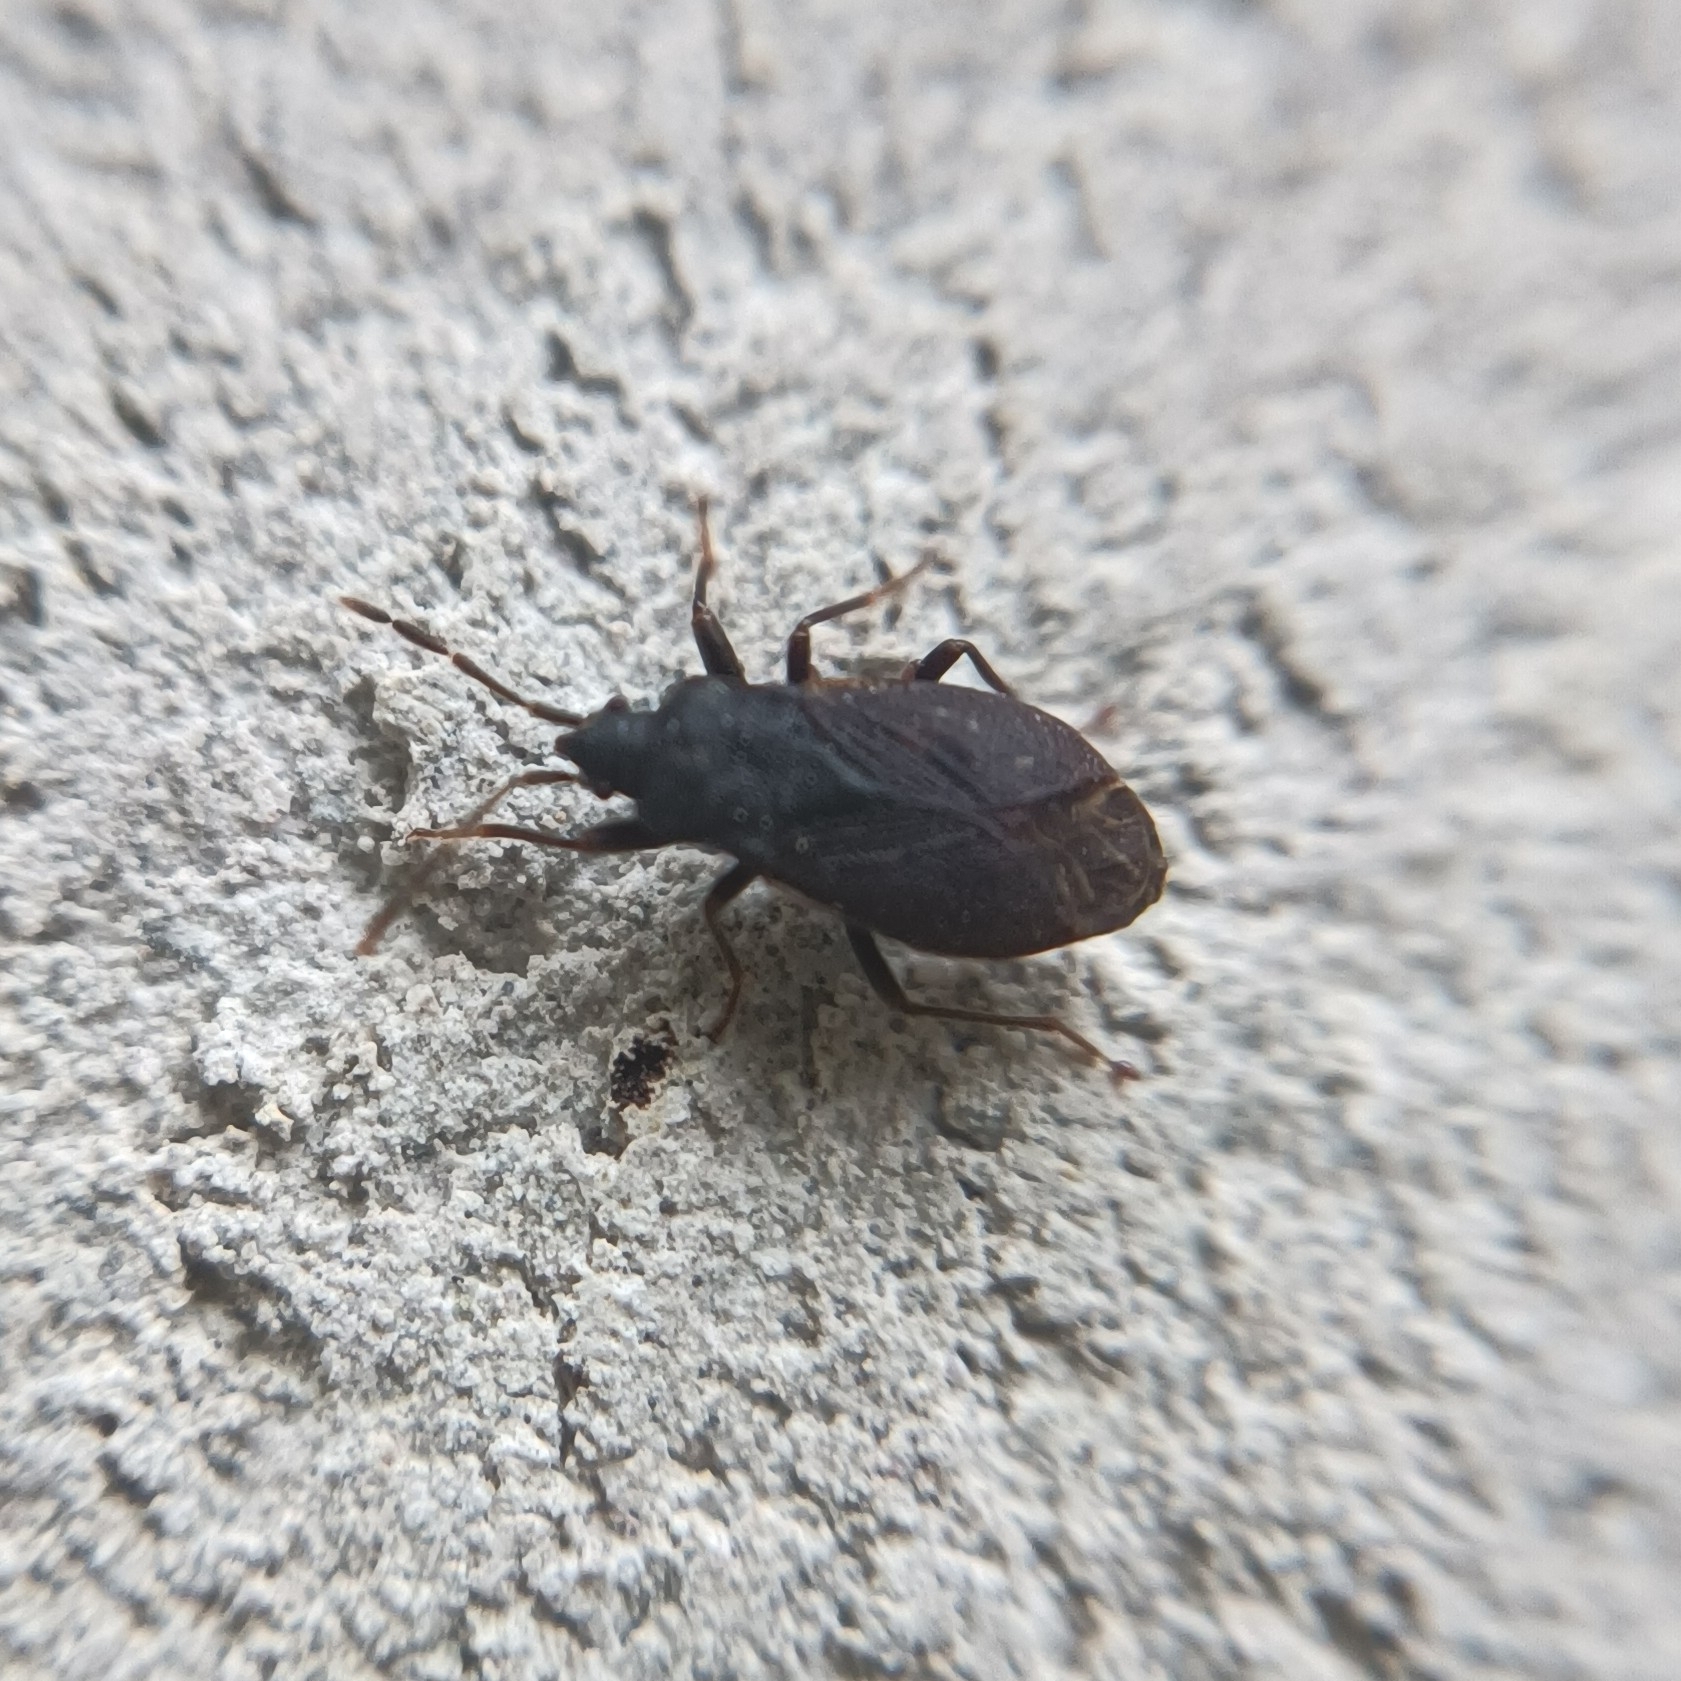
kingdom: Animalia
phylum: Arthropoda
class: Insecta
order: Hemiptera
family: Rhyparochromidae
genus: Drymus
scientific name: Drymus brunneus
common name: Seed bug
